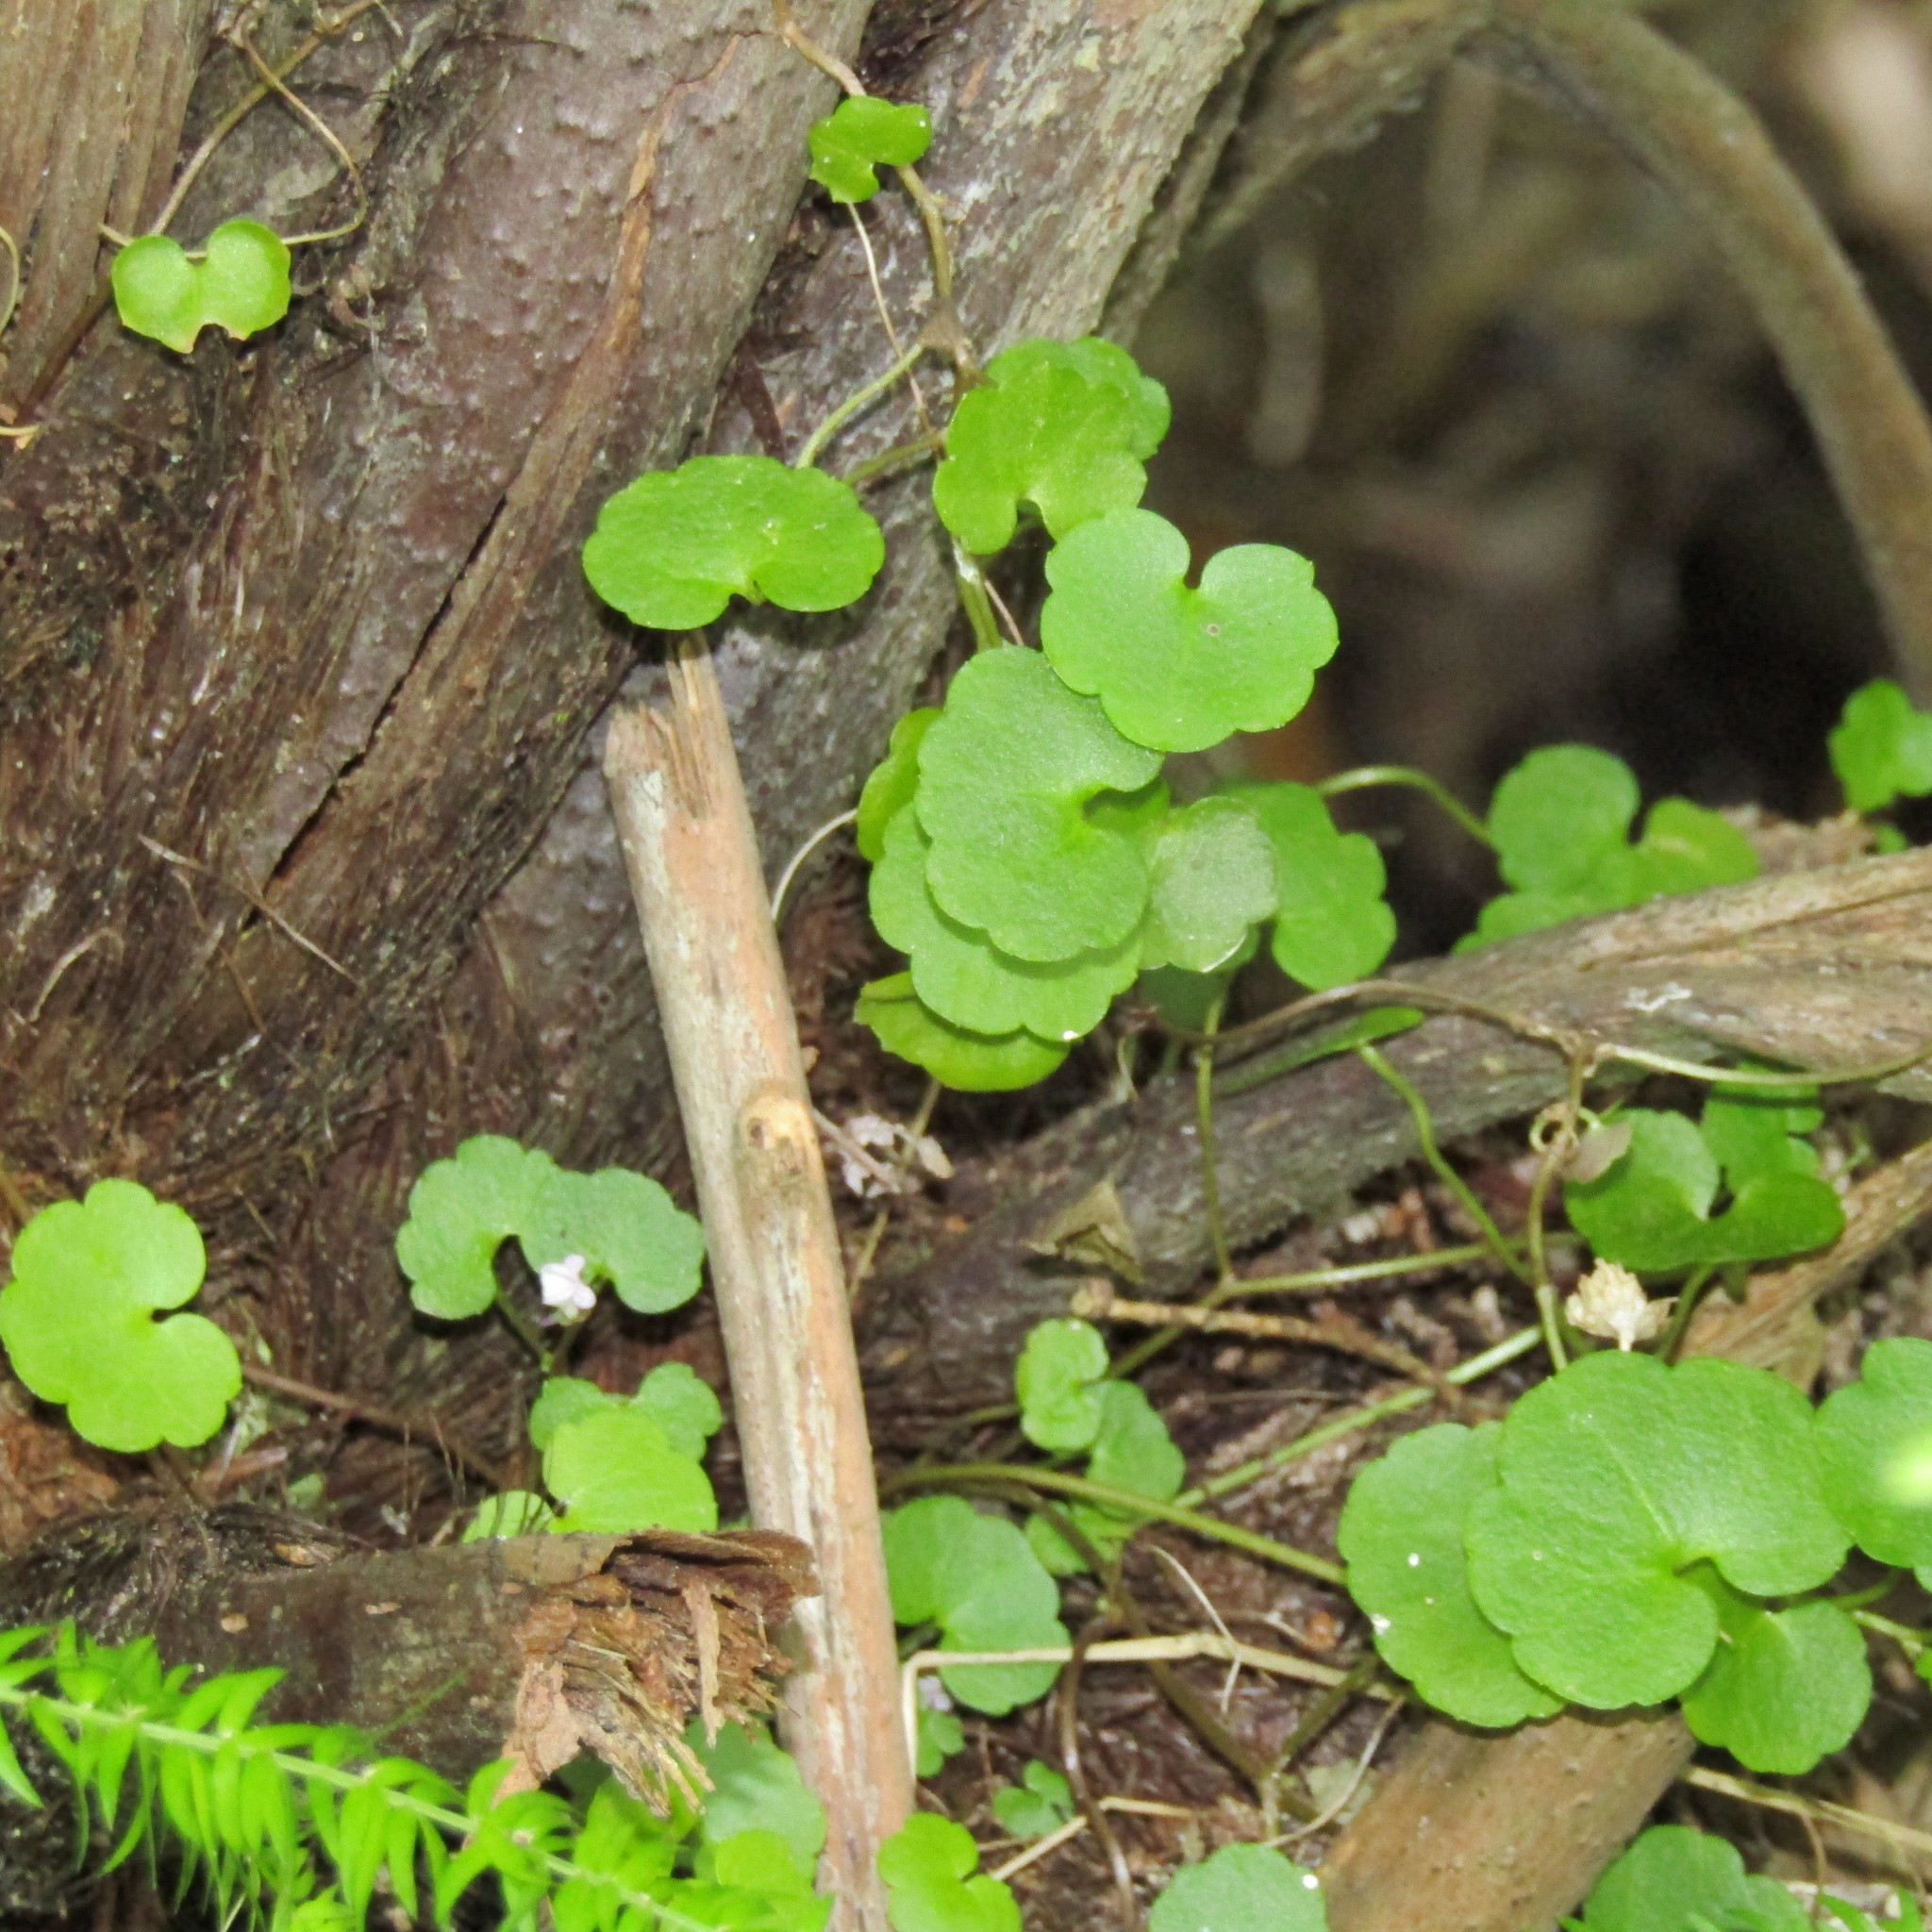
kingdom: Plantae
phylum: Tracheophyta
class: Magnoliopsida
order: Lamiales
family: Plantaginaceae
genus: Cymbalaria
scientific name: Cymbalaria muralis
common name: Ivy-leaved toadflax
